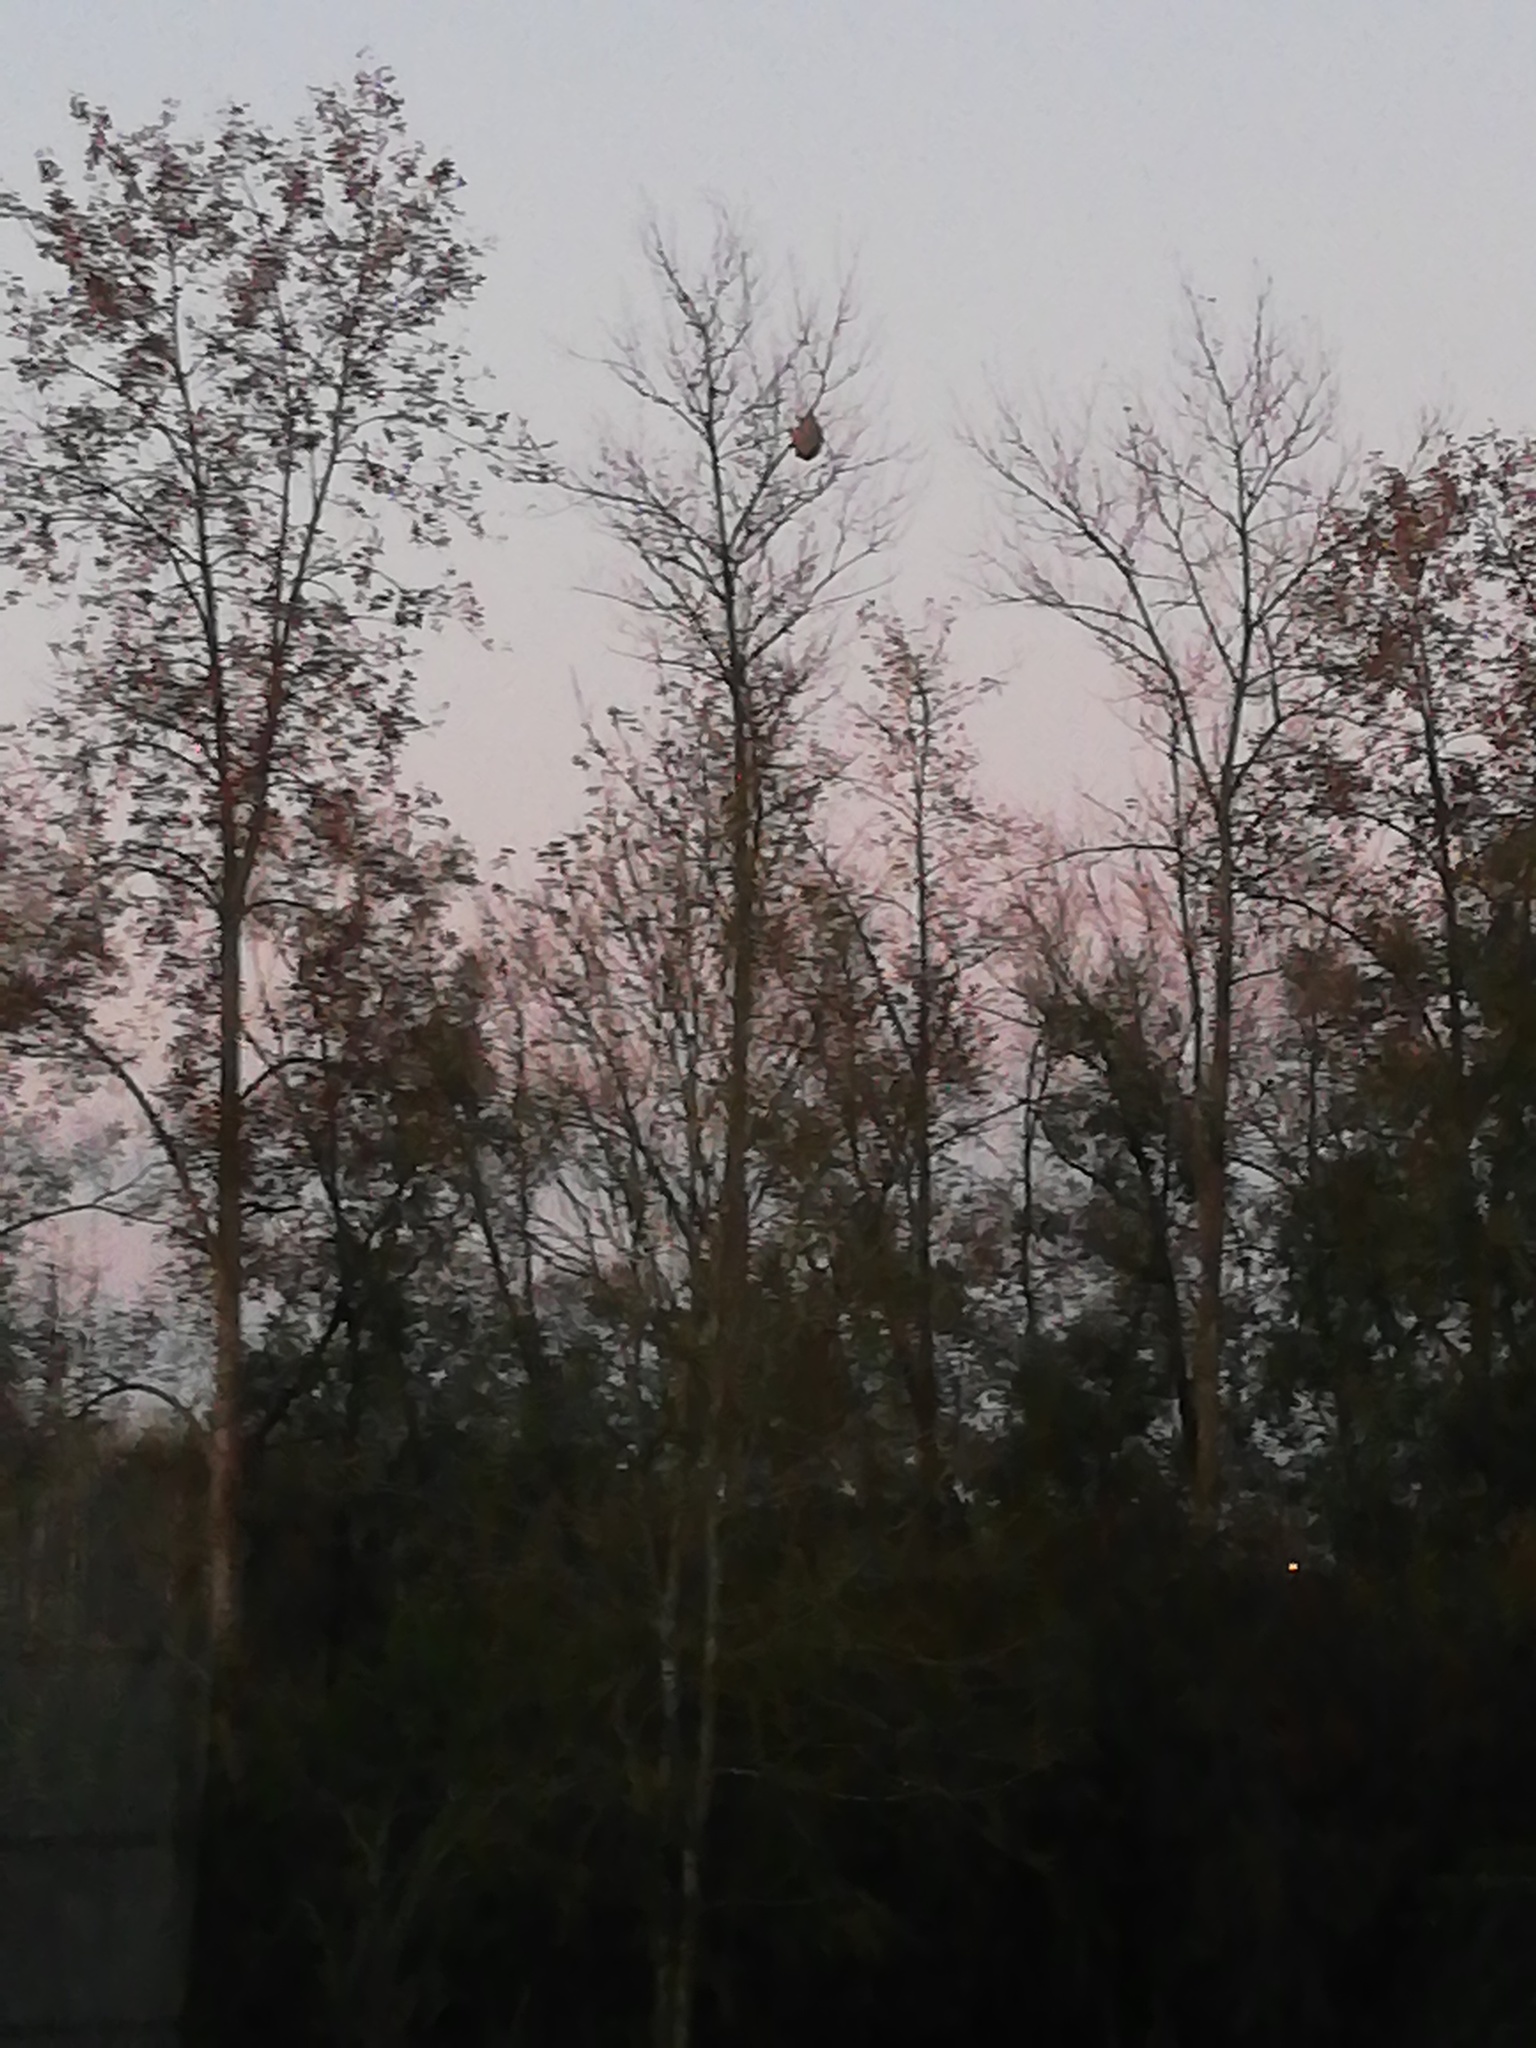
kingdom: Animalia
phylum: Arthropoda
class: Insecta
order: Hymenoptera
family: Vespidae
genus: Vespa
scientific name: Vespa velutina
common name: Asian hornet
